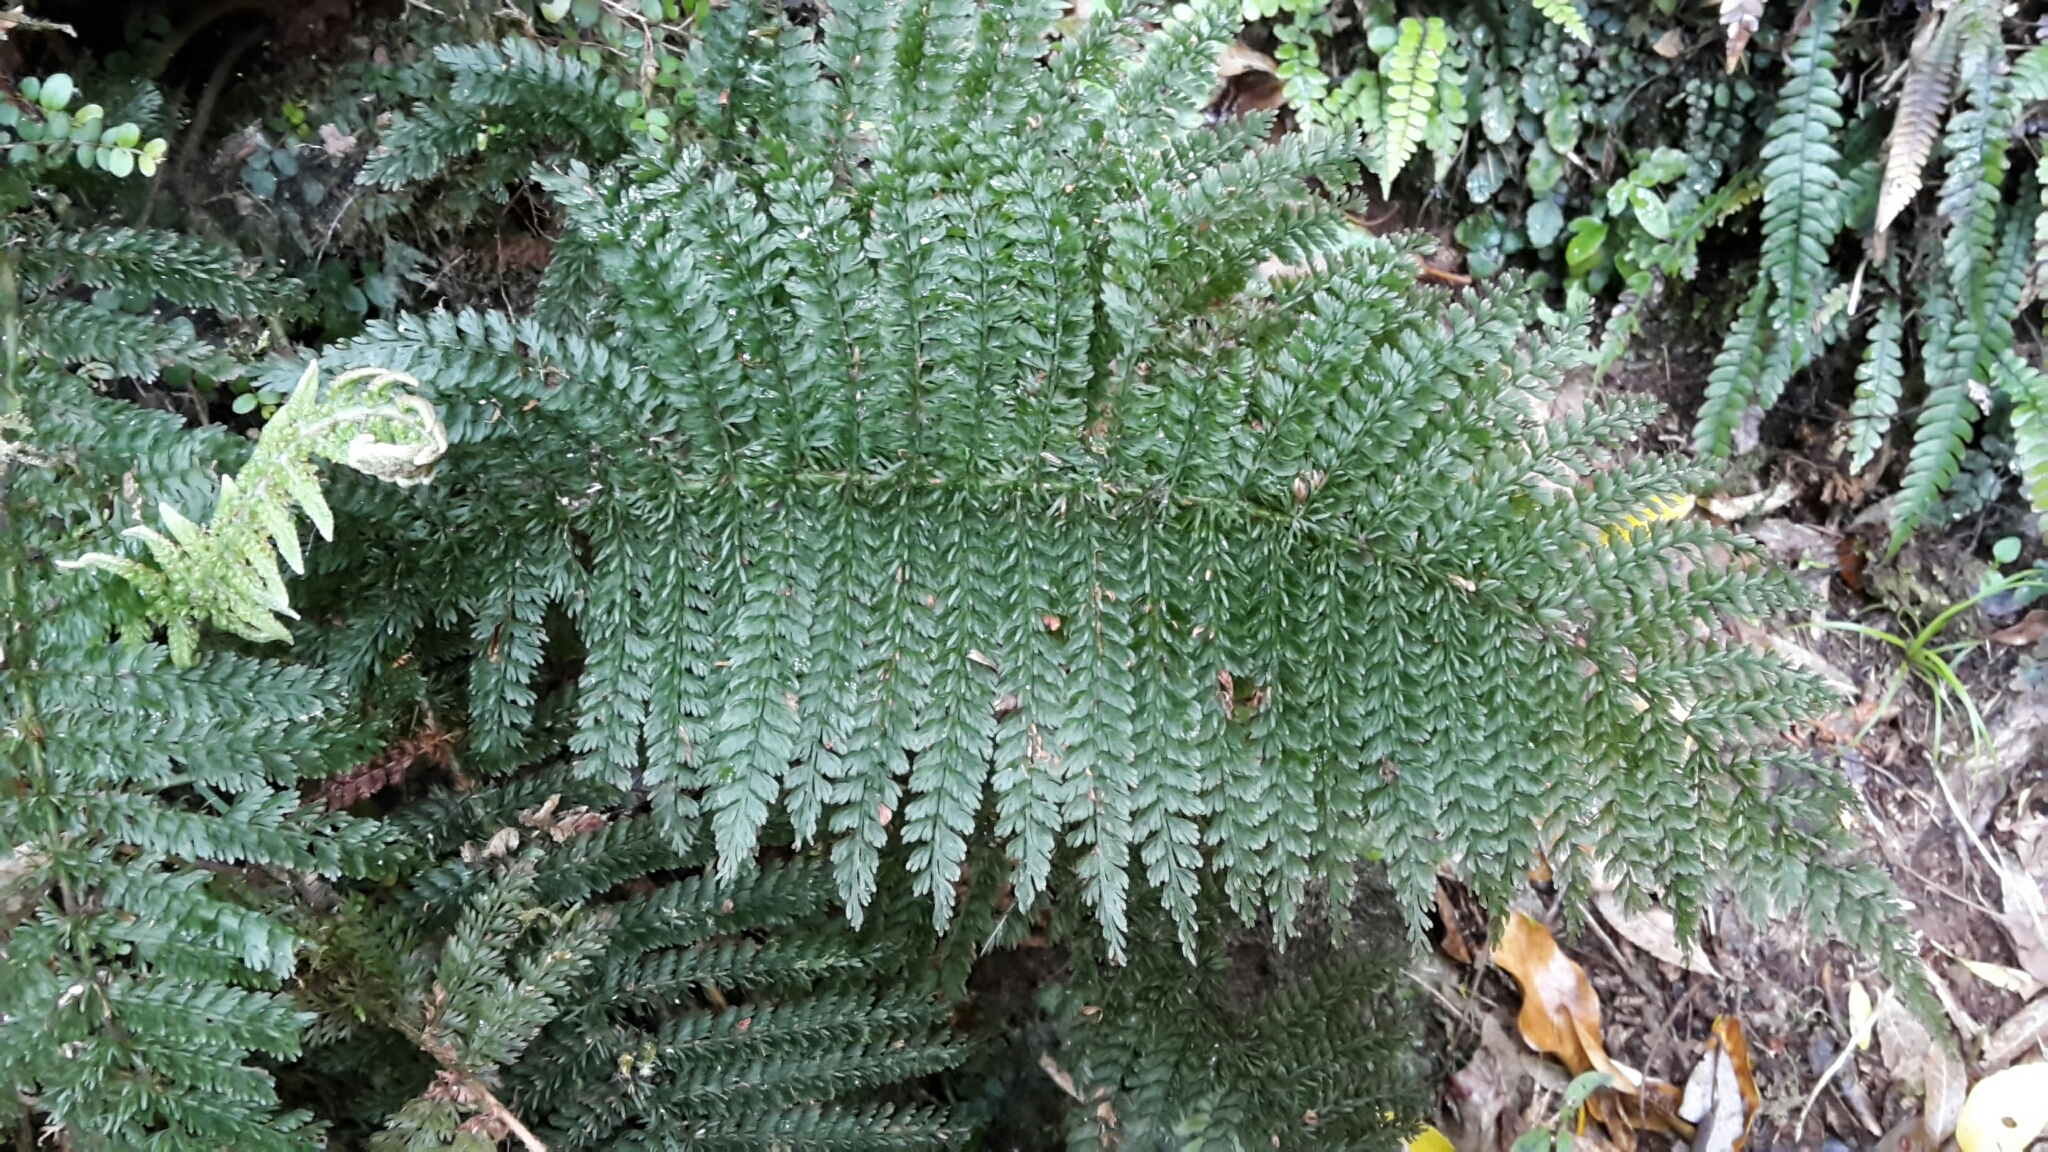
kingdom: Plantae
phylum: Tracheophyta
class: Polypodiopsida
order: Osmundales
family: Osmundaceae
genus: Leptopteris
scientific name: Leptopteris superba
